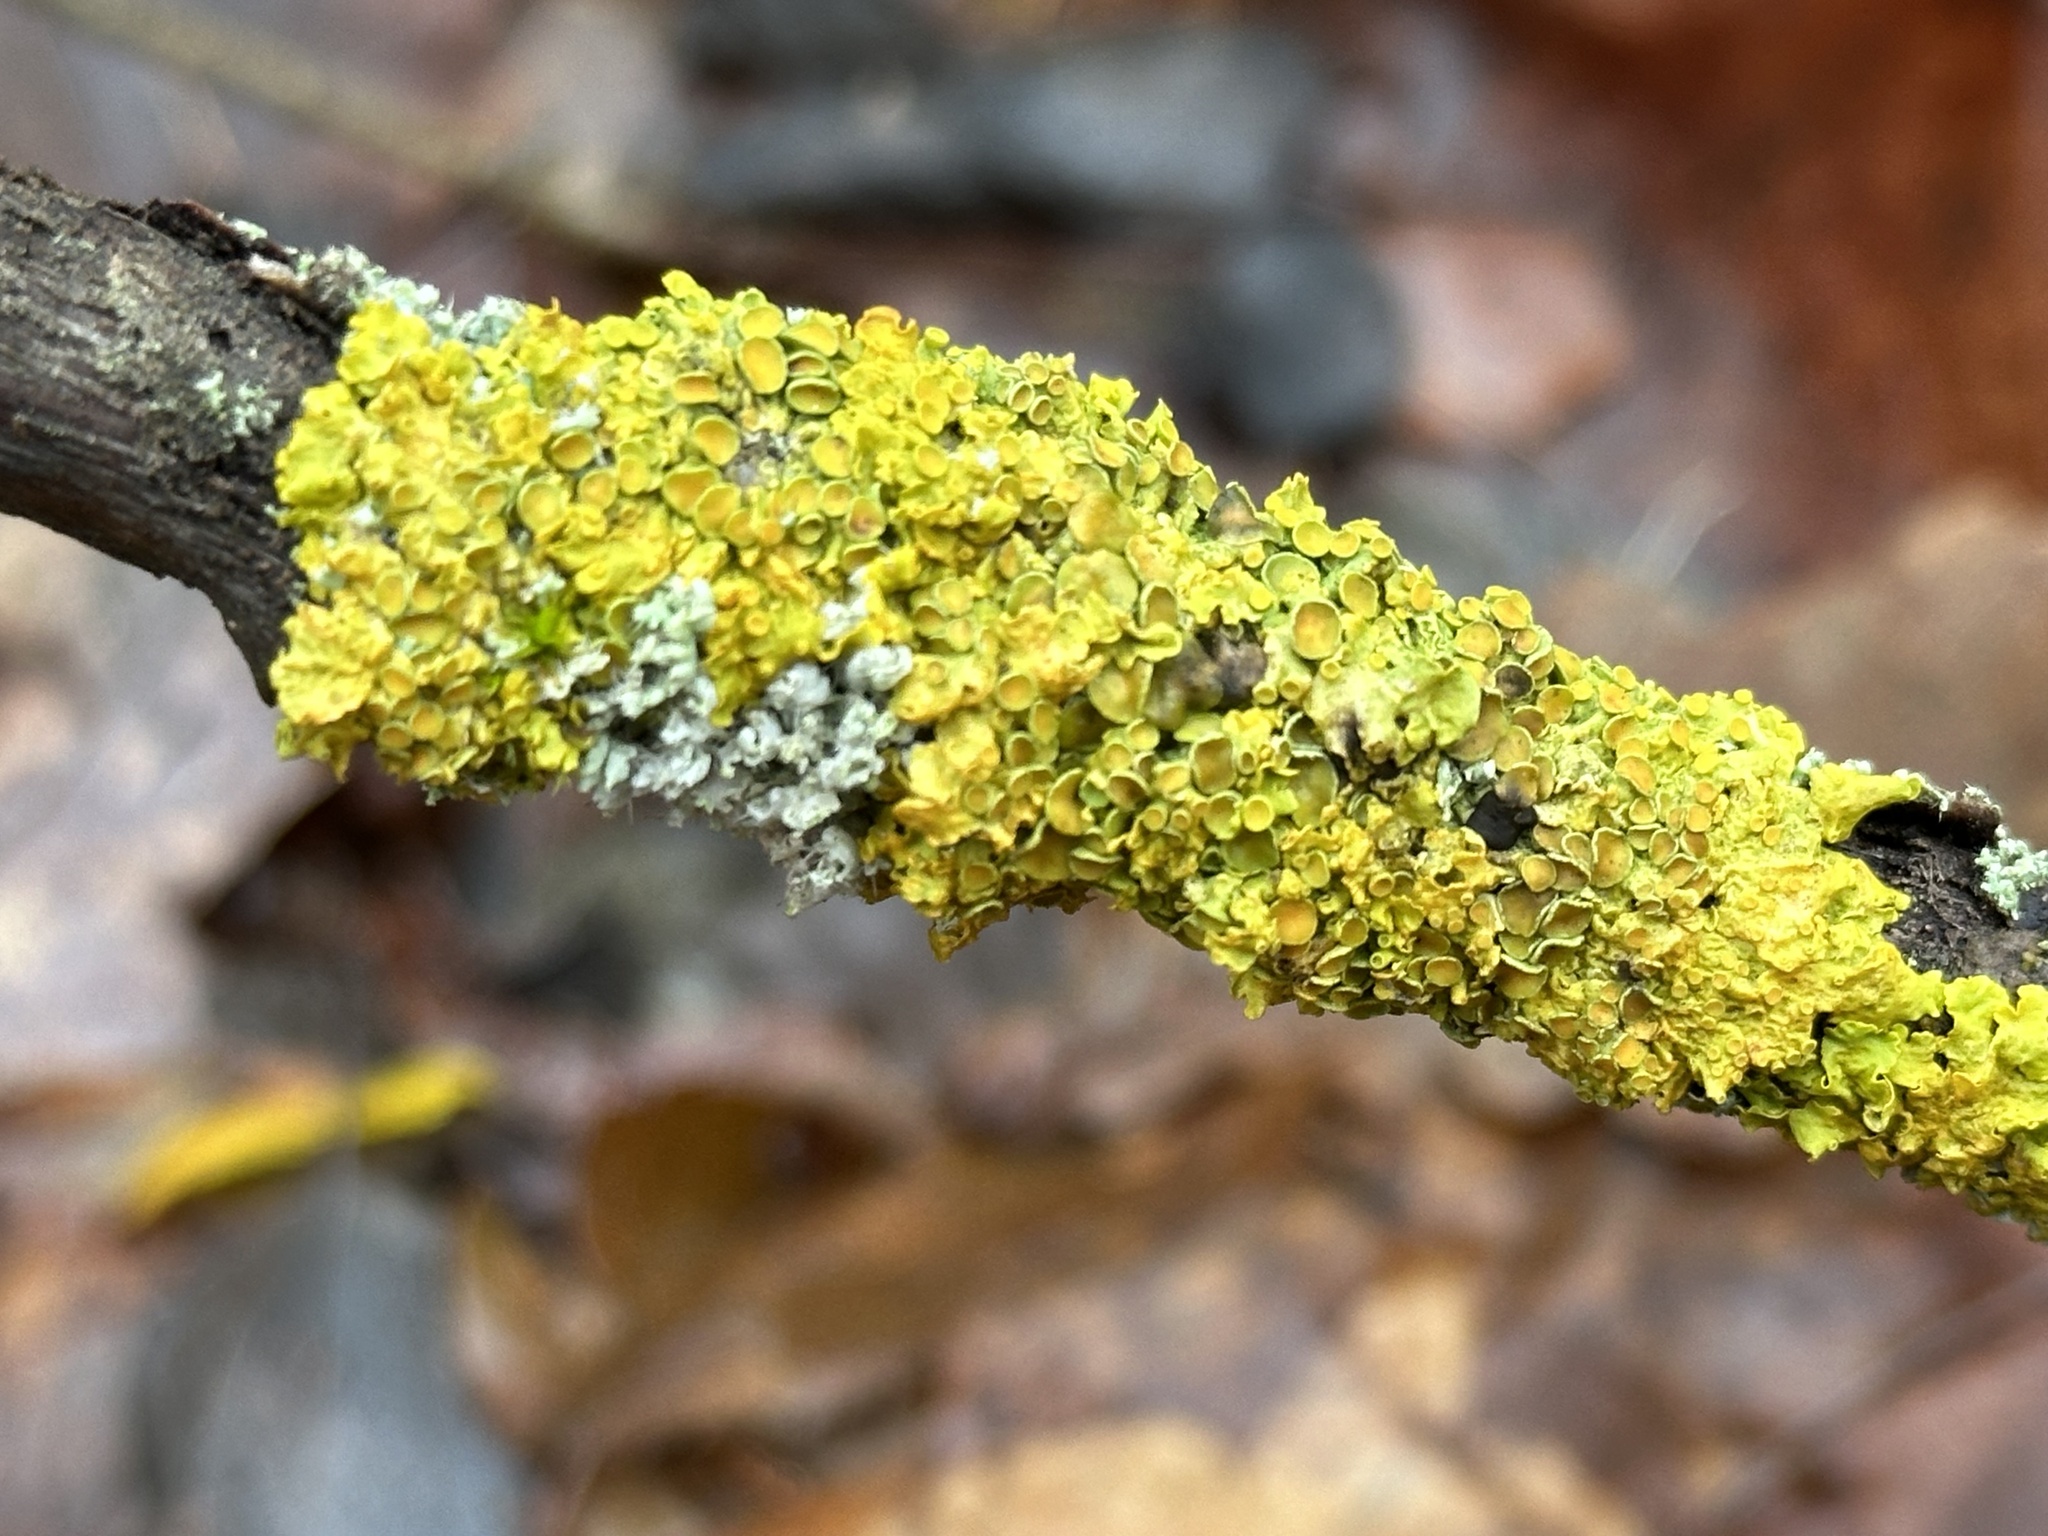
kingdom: Fungi
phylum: Ascomycota
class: Lecanoromycetes
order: Teloschistales
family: Teloschistaceae
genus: Xanthoria
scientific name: Xanthoria parietina
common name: Common orange lichen
